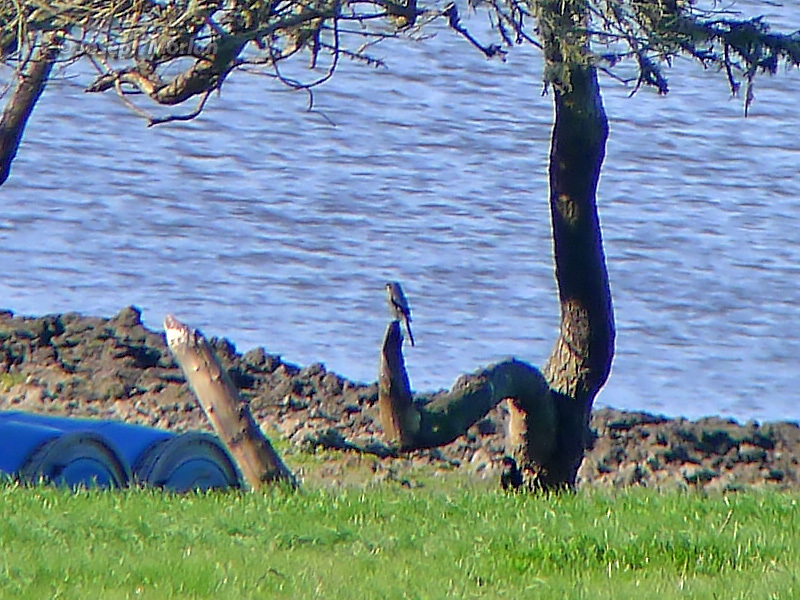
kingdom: Animalia
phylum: Chordata
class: Aves
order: Passeriformes
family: Laniidae
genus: Lanius
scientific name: Lanius ludovicianus
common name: Loggerhead shrike
